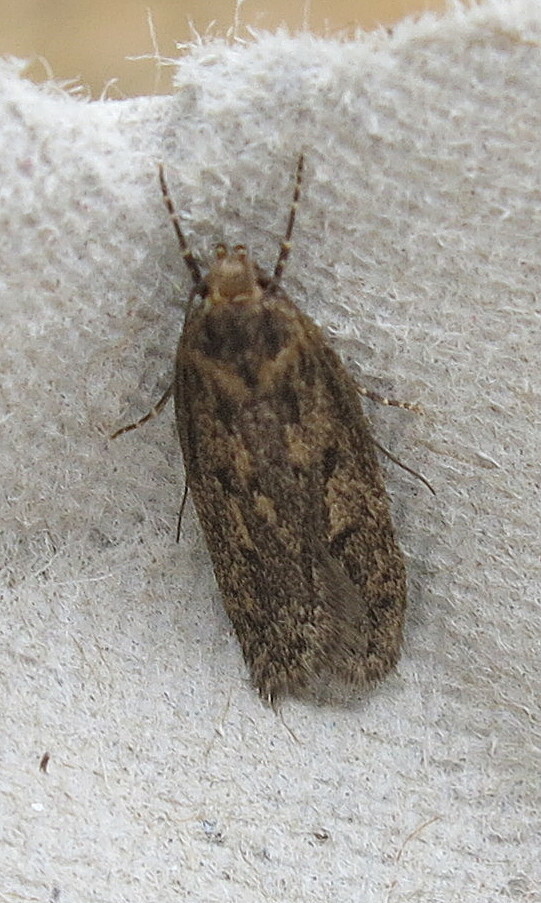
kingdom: Animalia
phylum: Arthropoda
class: Insecta
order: Lepidoptera
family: Oecophoridae
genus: Hofmannophila
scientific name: Hofmannophila pseudospretella
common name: Brown house moth
